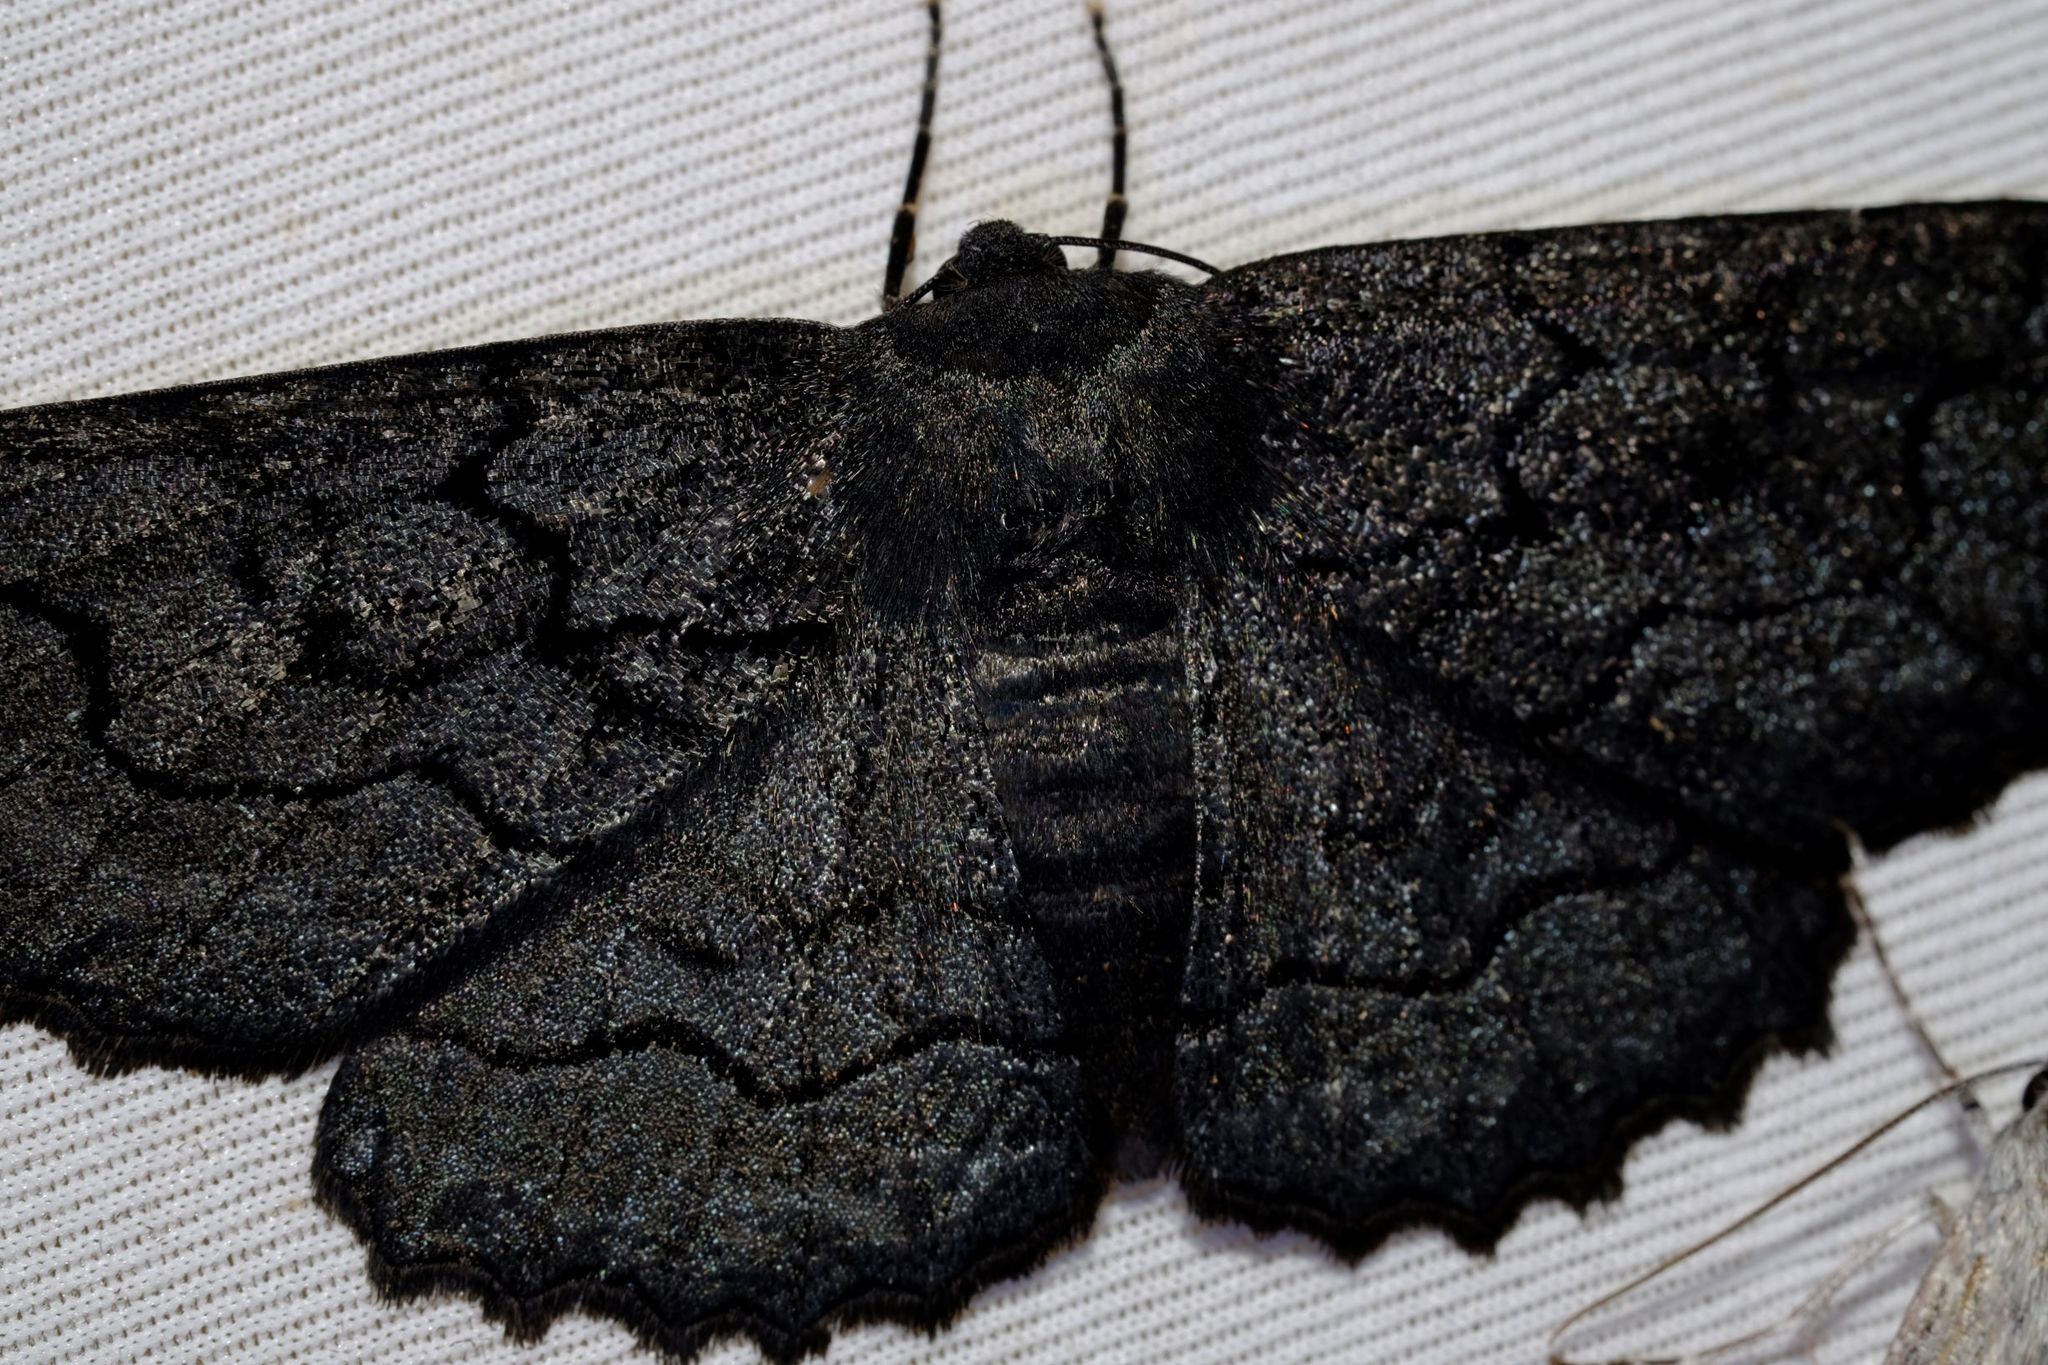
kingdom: Animalia
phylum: Arthropoda
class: Insecta
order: Lepidoptera
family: Geometridae
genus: Melanodes
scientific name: Melanodes anthracitaria
